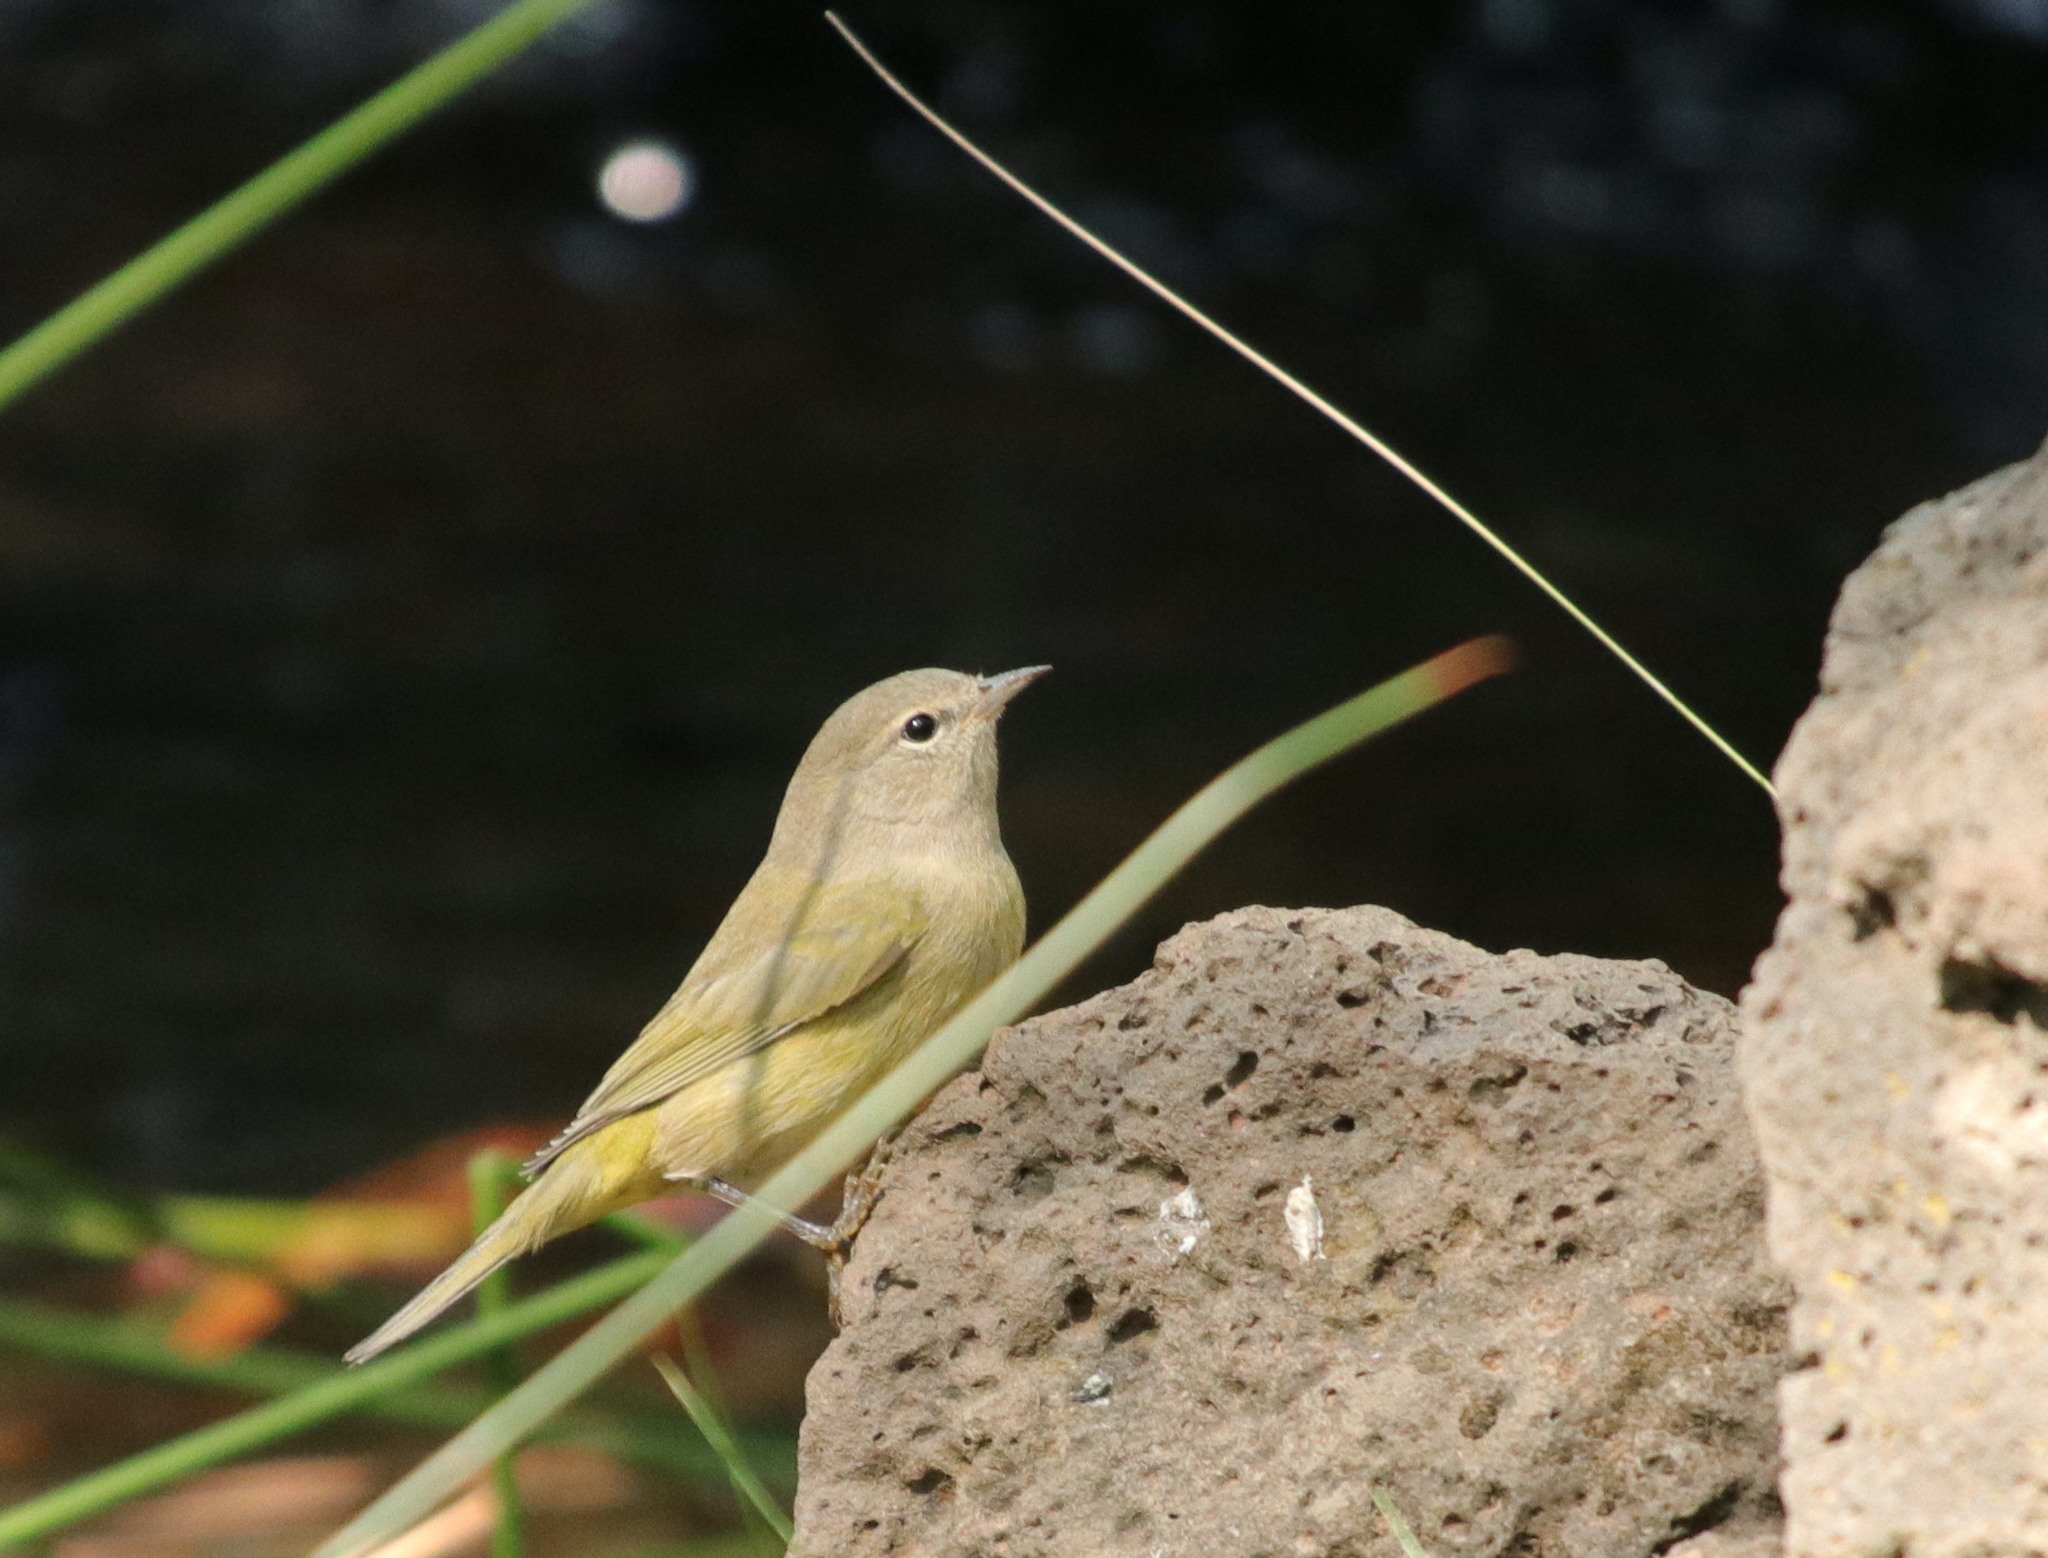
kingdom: Animalia
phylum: Chordata
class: Aves
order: Passeriformes
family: Parulidae
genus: Leiothlypis
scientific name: Leiothlypis celata
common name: Orange-crowned warbler
